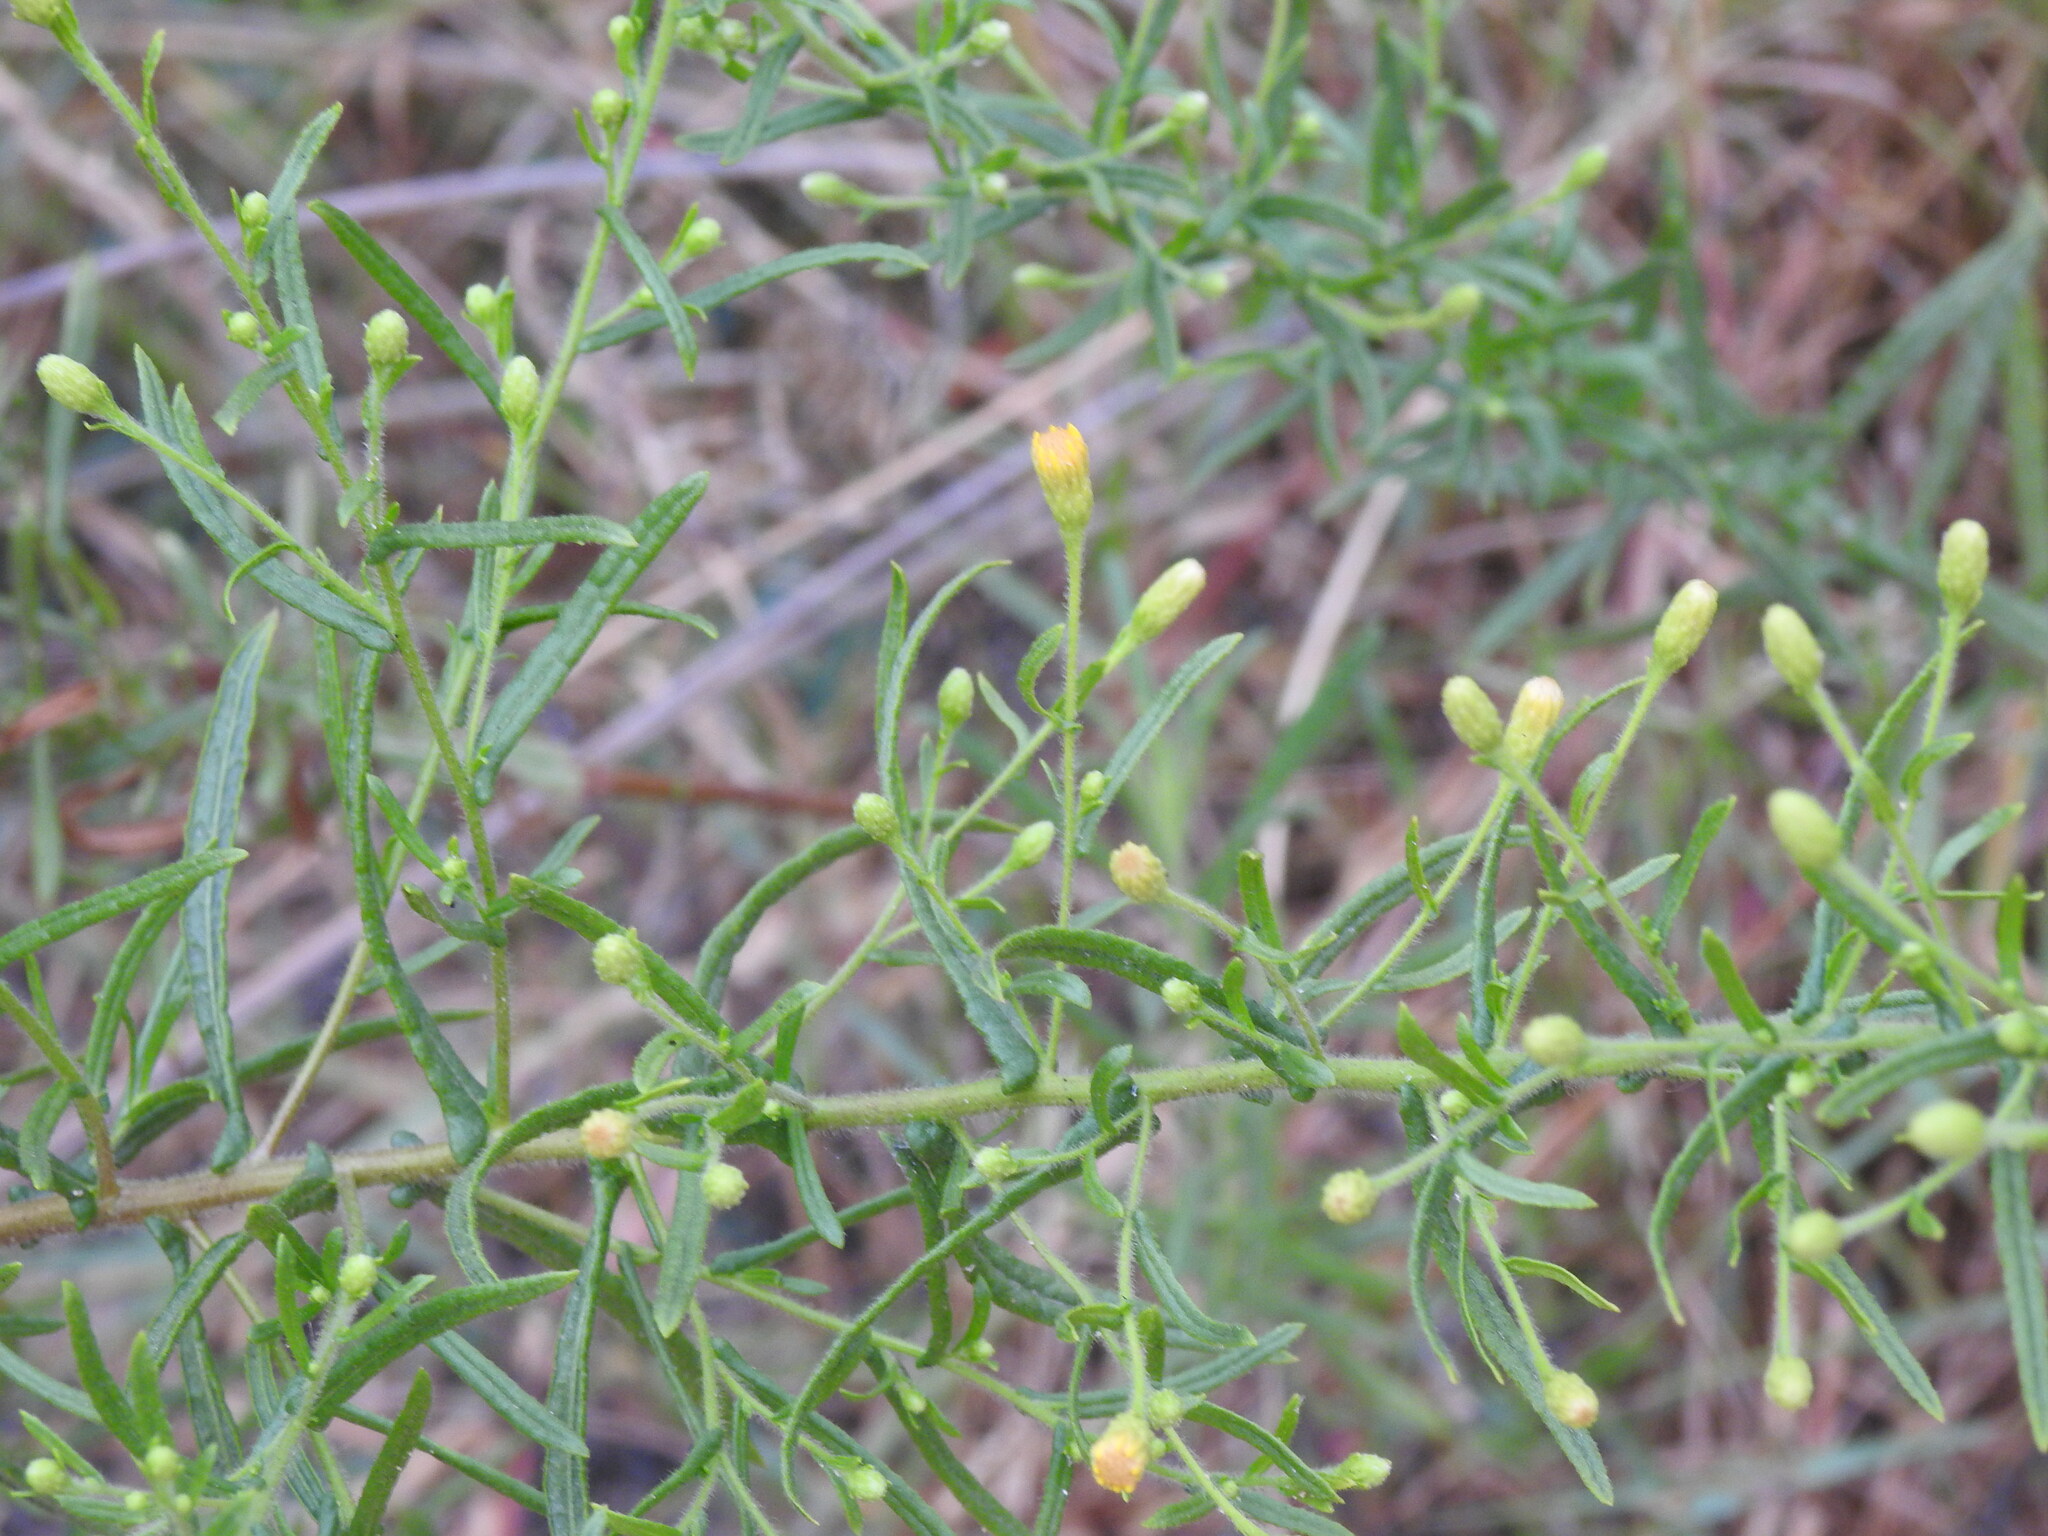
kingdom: Plantae
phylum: Tracheophyta
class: Magnoliopsida
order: Asterales
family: Asteraceae
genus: Dittrichia
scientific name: Dittrichia viscosa
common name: Woody fleabane
